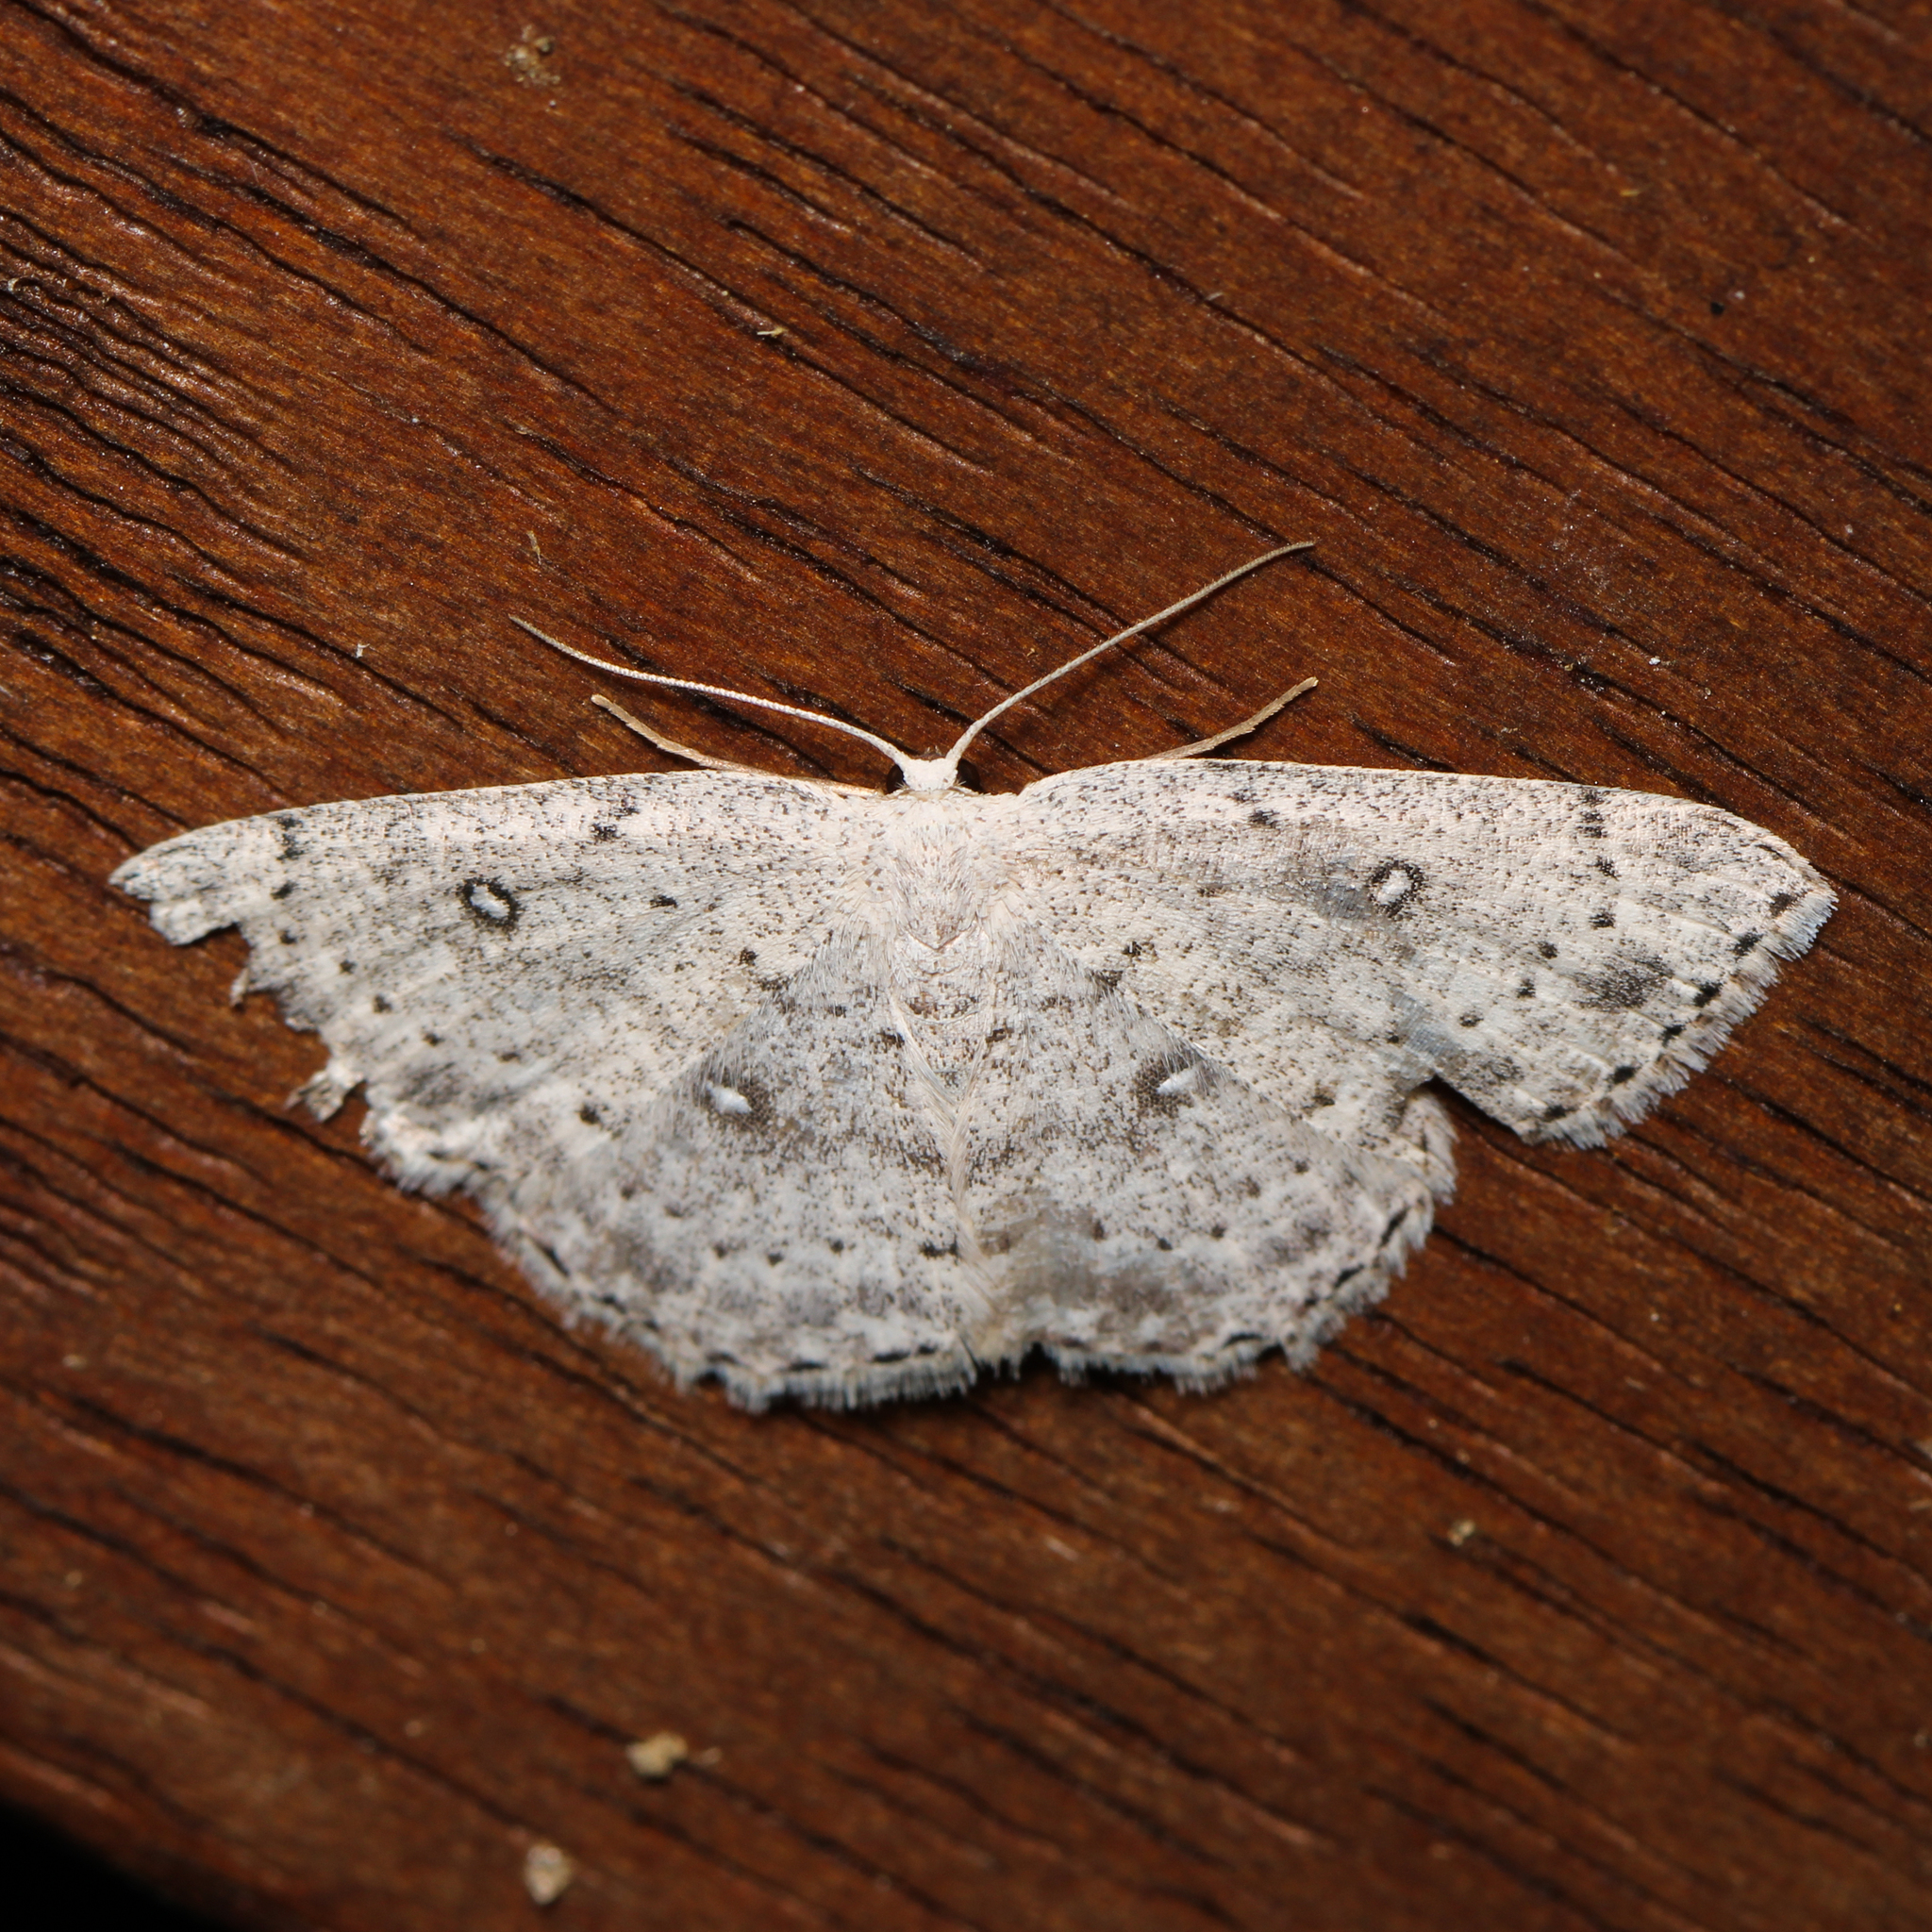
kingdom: Animalia
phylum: Arthropoda
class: Insecta
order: Lepidoptera
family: Geometridae
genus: Cyclophora
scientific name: Cyclophora pendulinaria
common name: Sweet fern geometer
